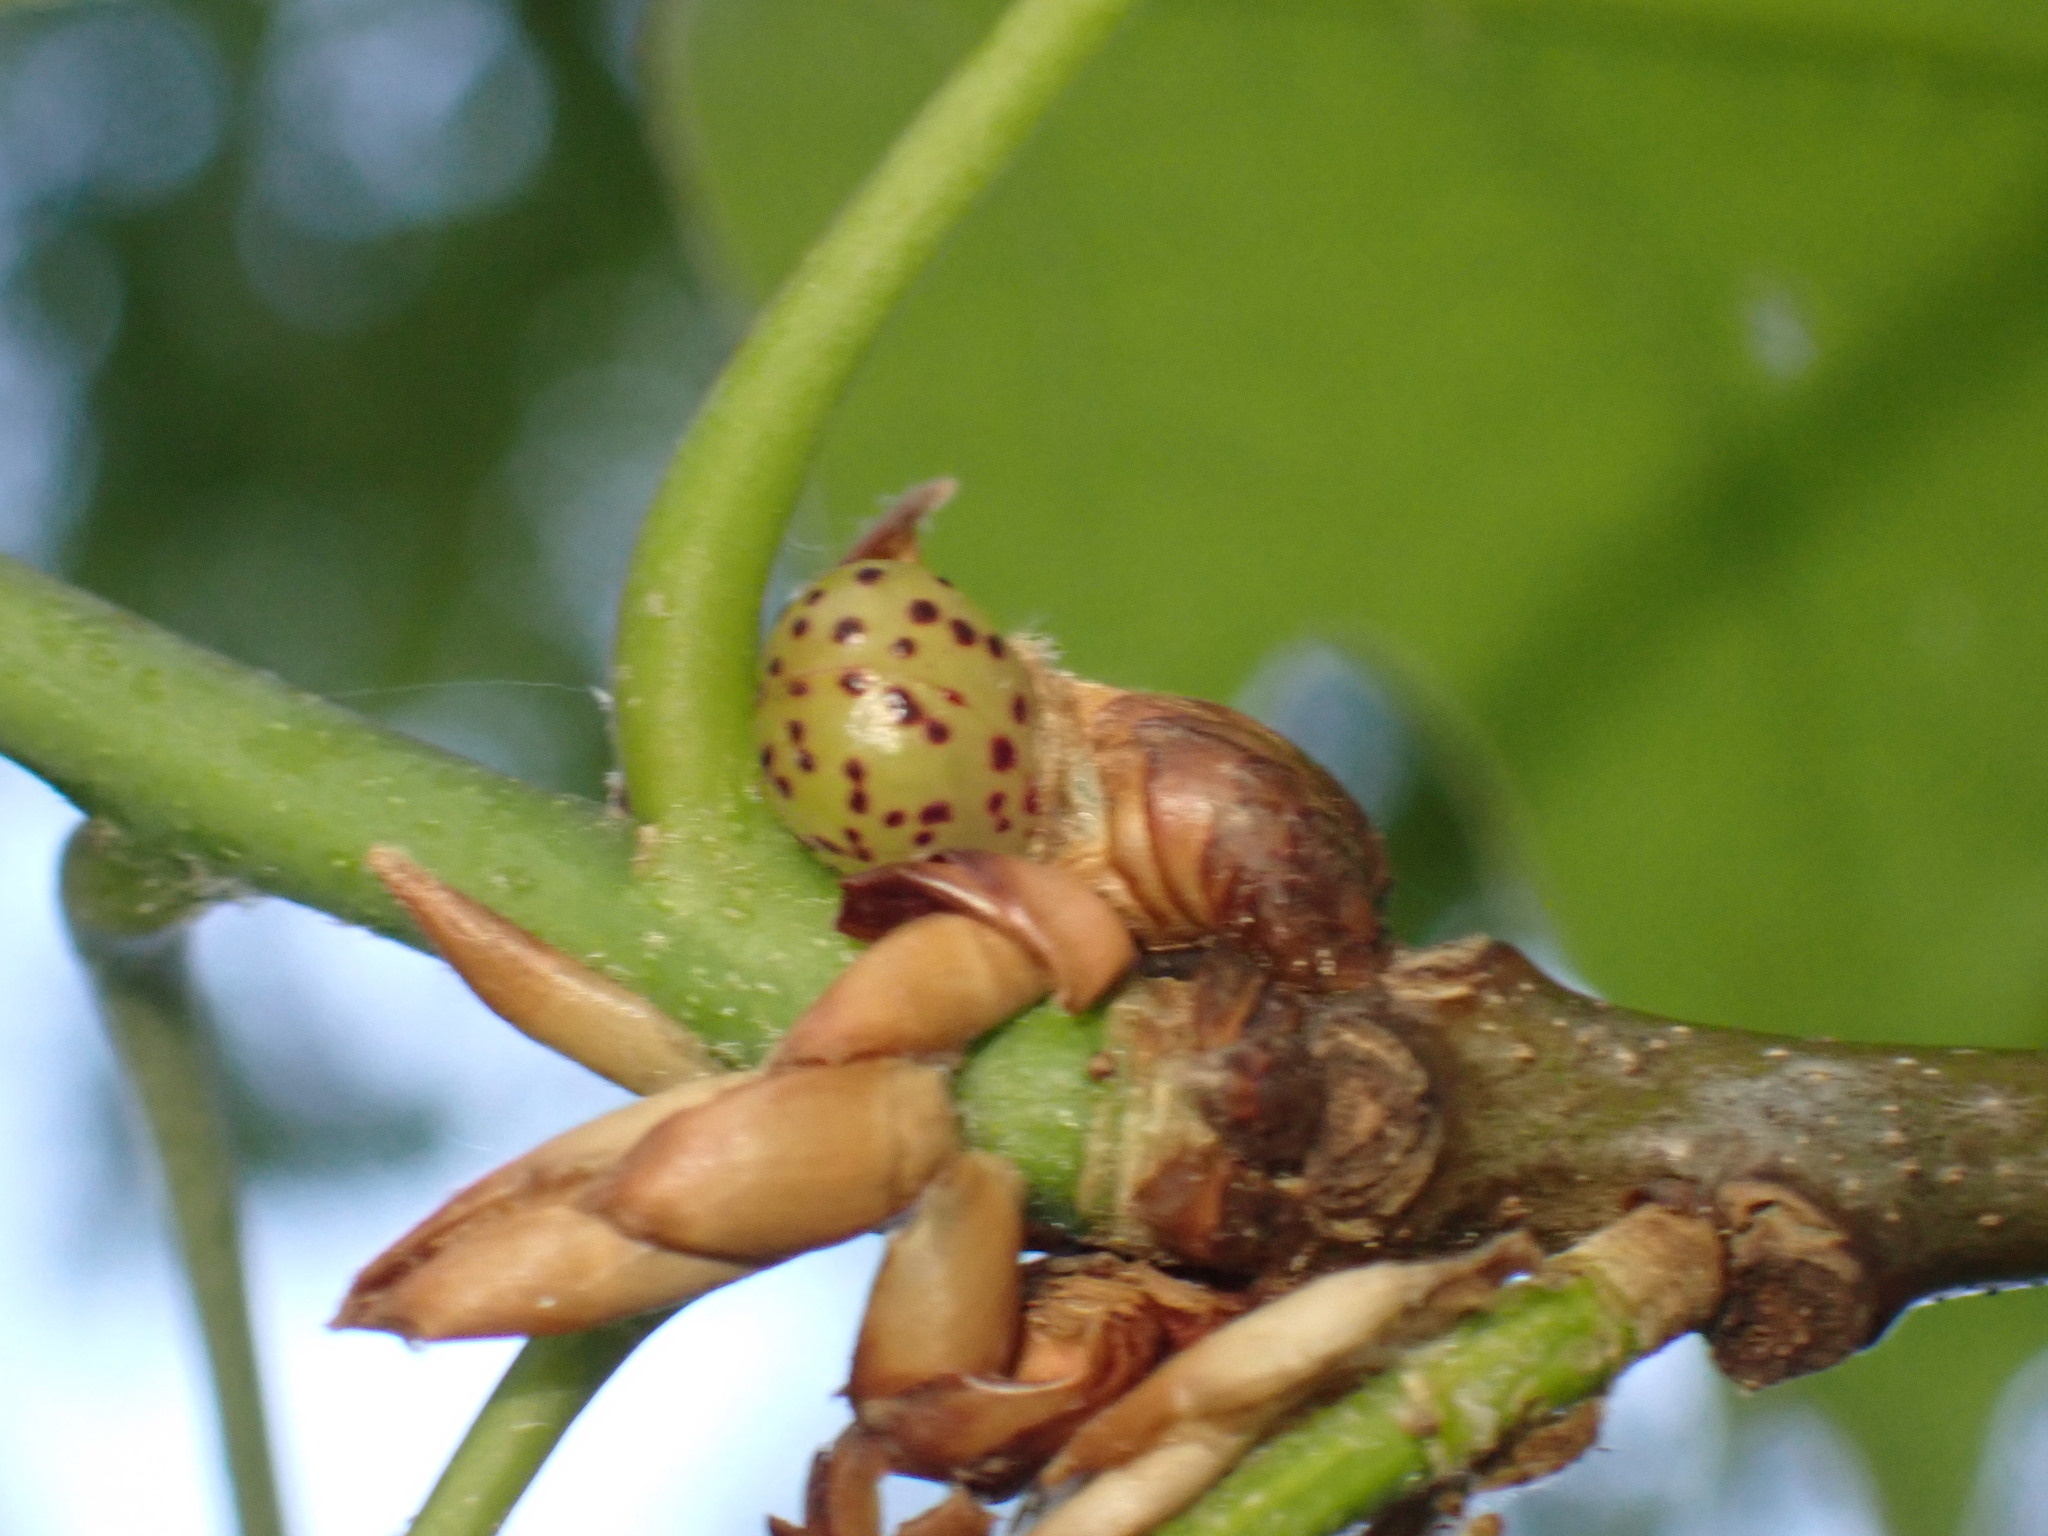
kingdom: Animalia
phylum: Arthropoda
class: Insecta
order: Hymenoptera
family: Cynipidae
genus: Amphibolips
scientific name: Amphibolips
